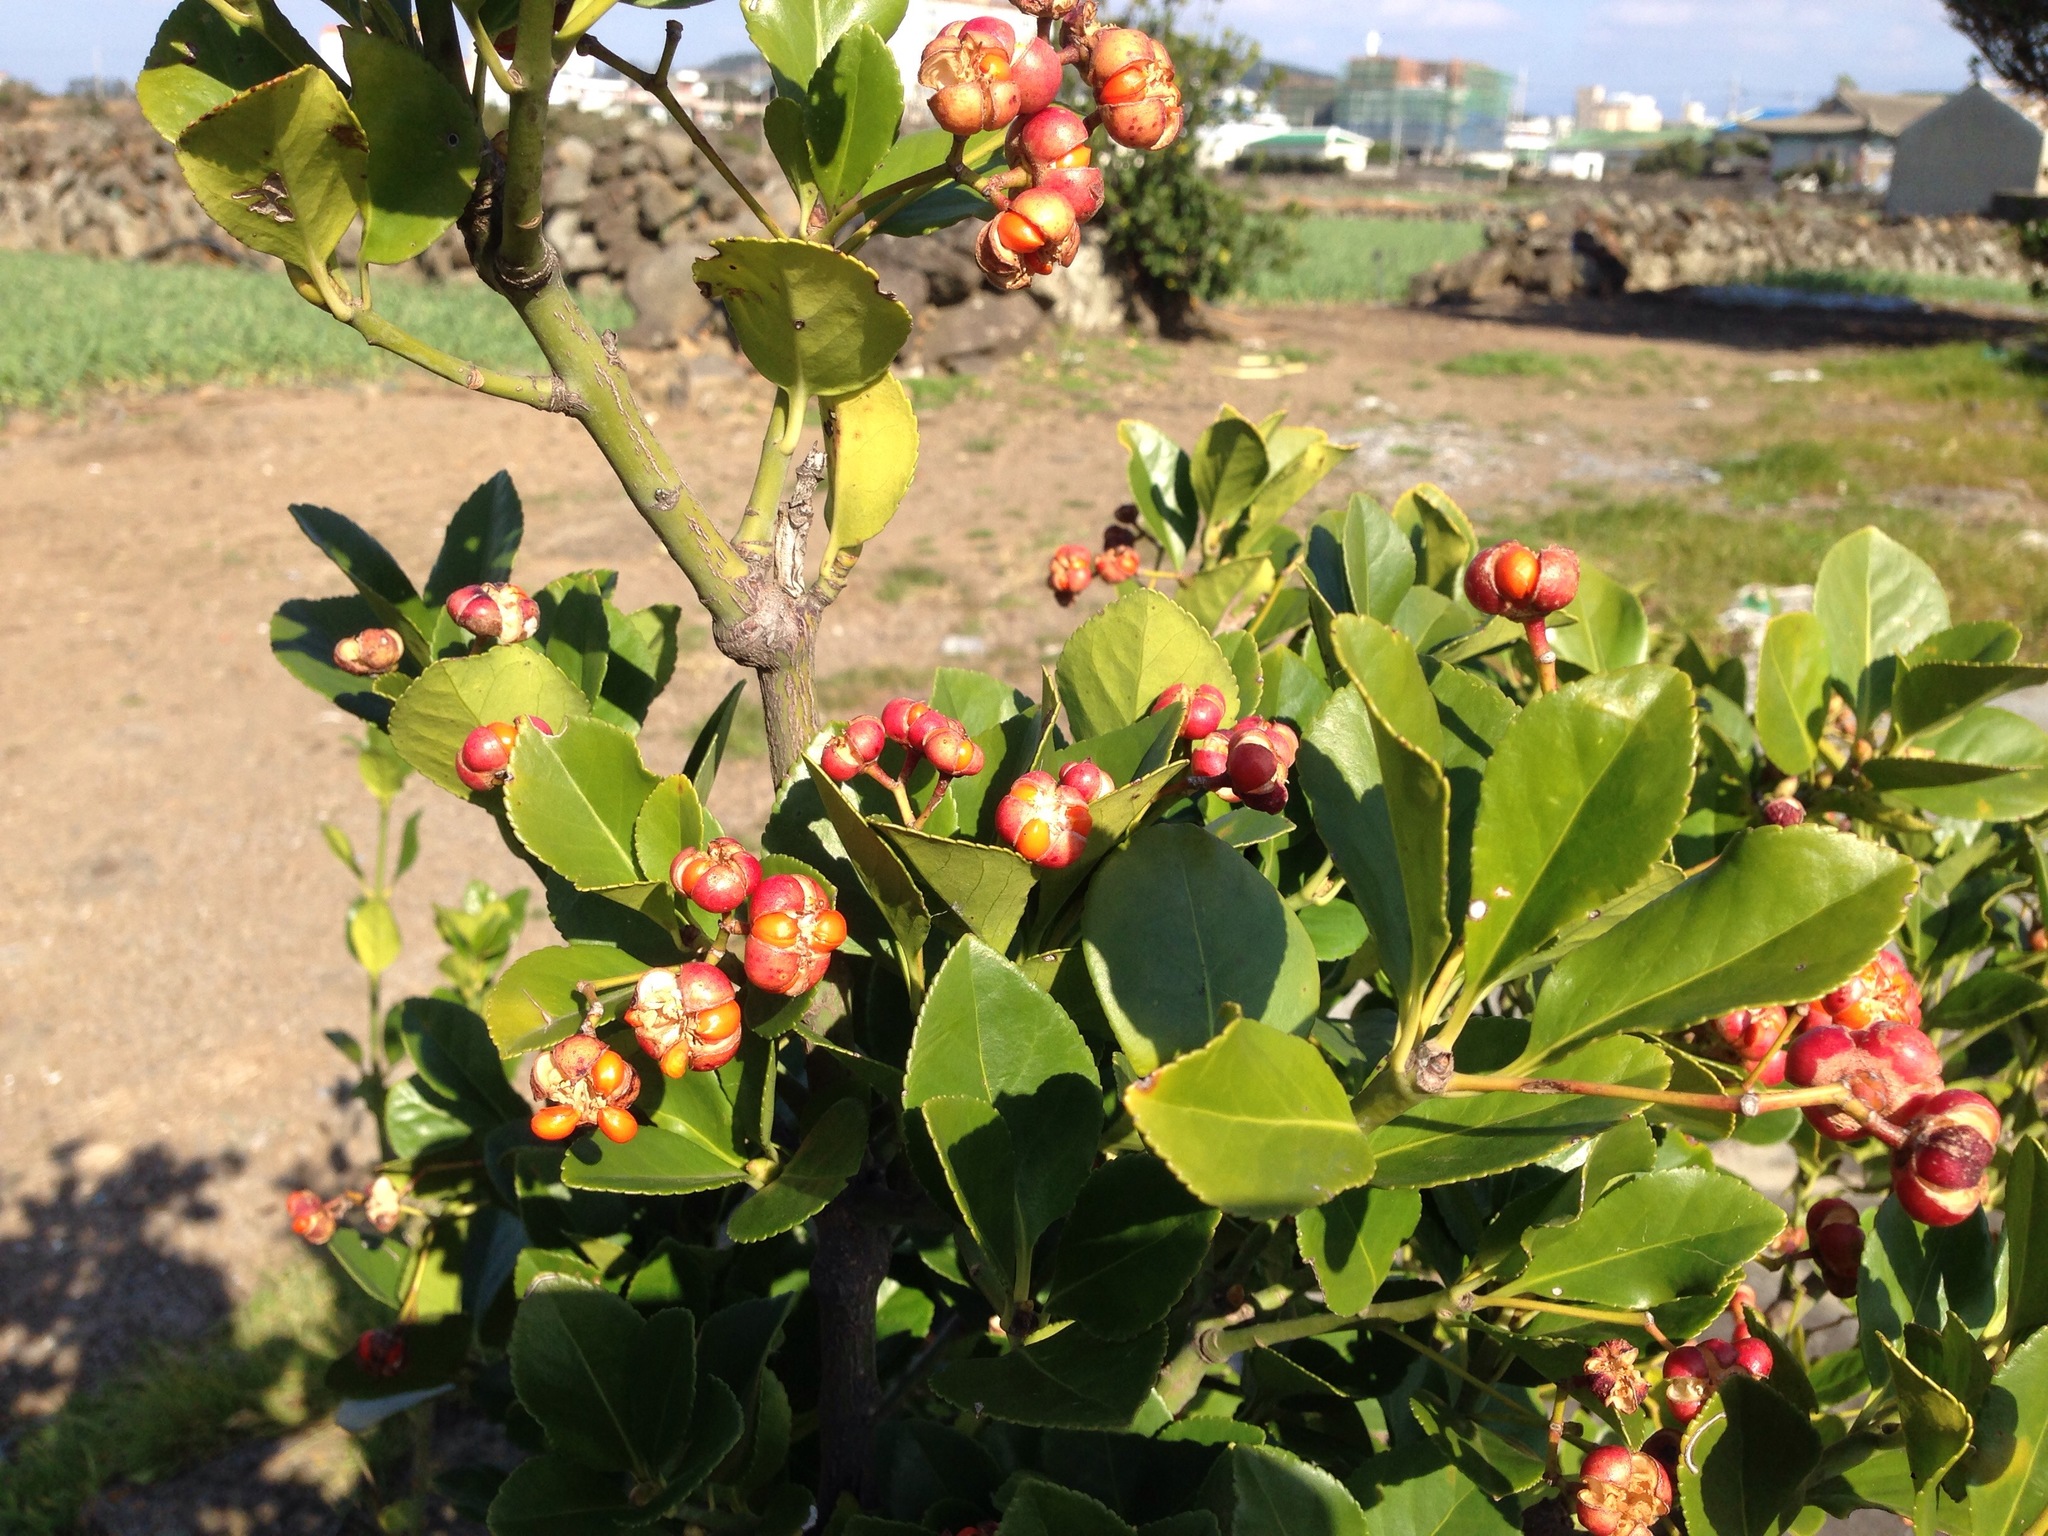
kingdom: Plantae
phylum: Tracheophyta
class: Magnoliopsida
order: Celastrales
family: Celastraceae
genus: Euonymus
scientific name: Euonymus japonicus
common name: Japanese spindletree
